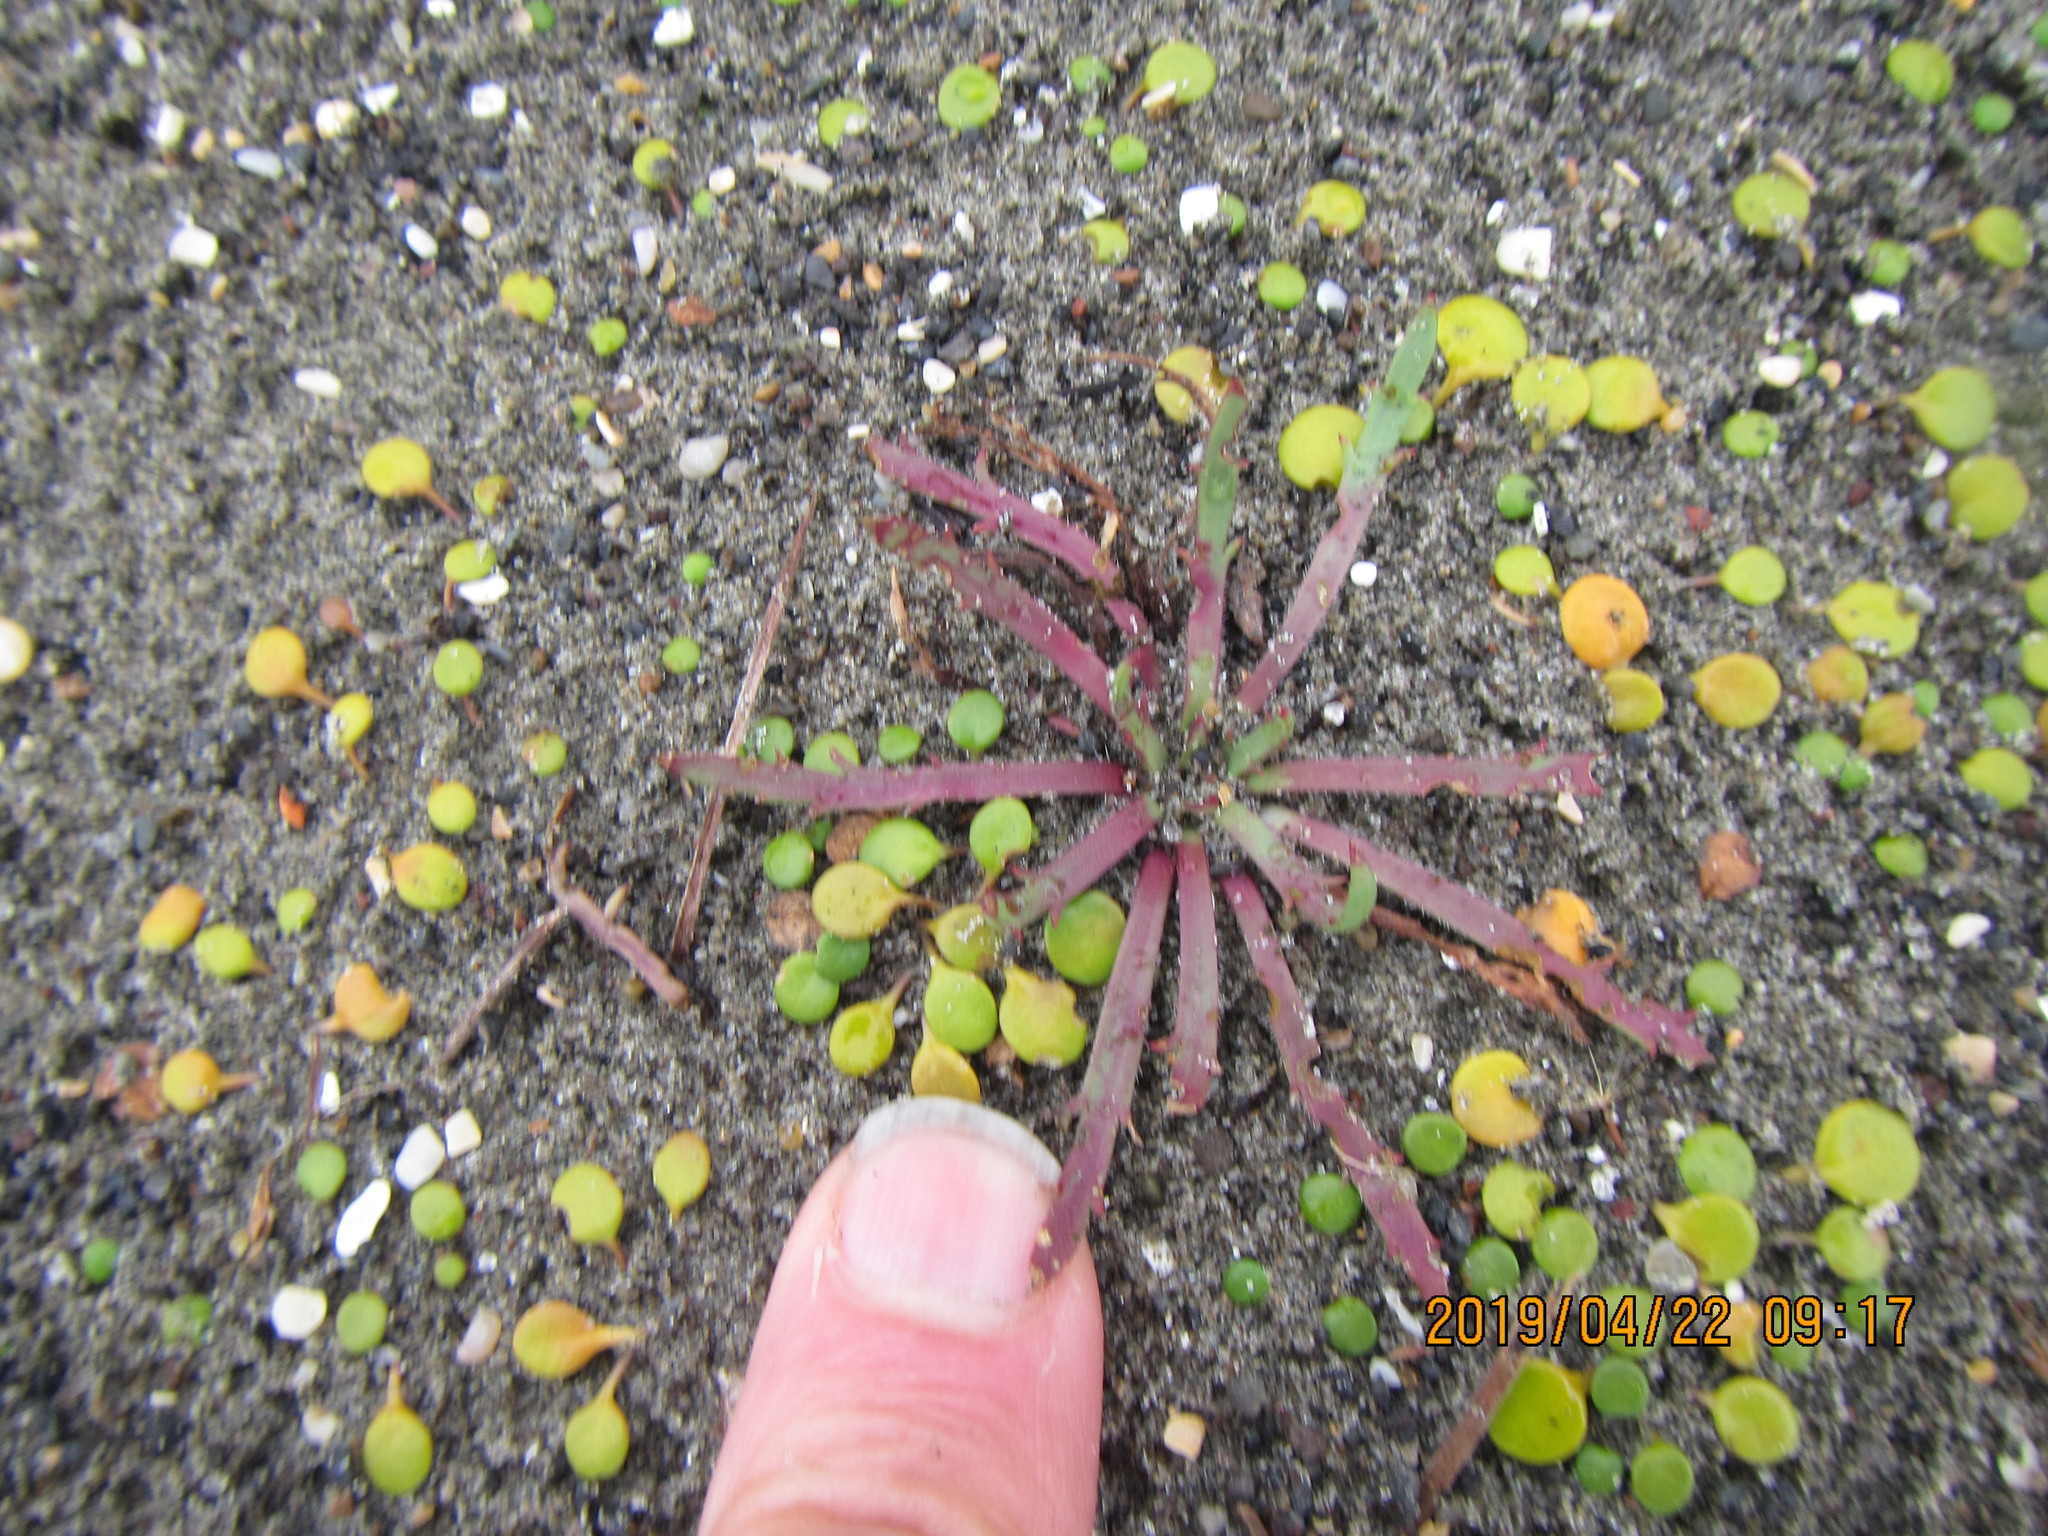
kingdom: Plantae
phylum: Tracheophyta
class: Magnoliopsida
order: Lamiales
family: Plantaginaceae
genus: Plantago
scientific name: Plantago coronopus
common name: Buck's-horn plantain
